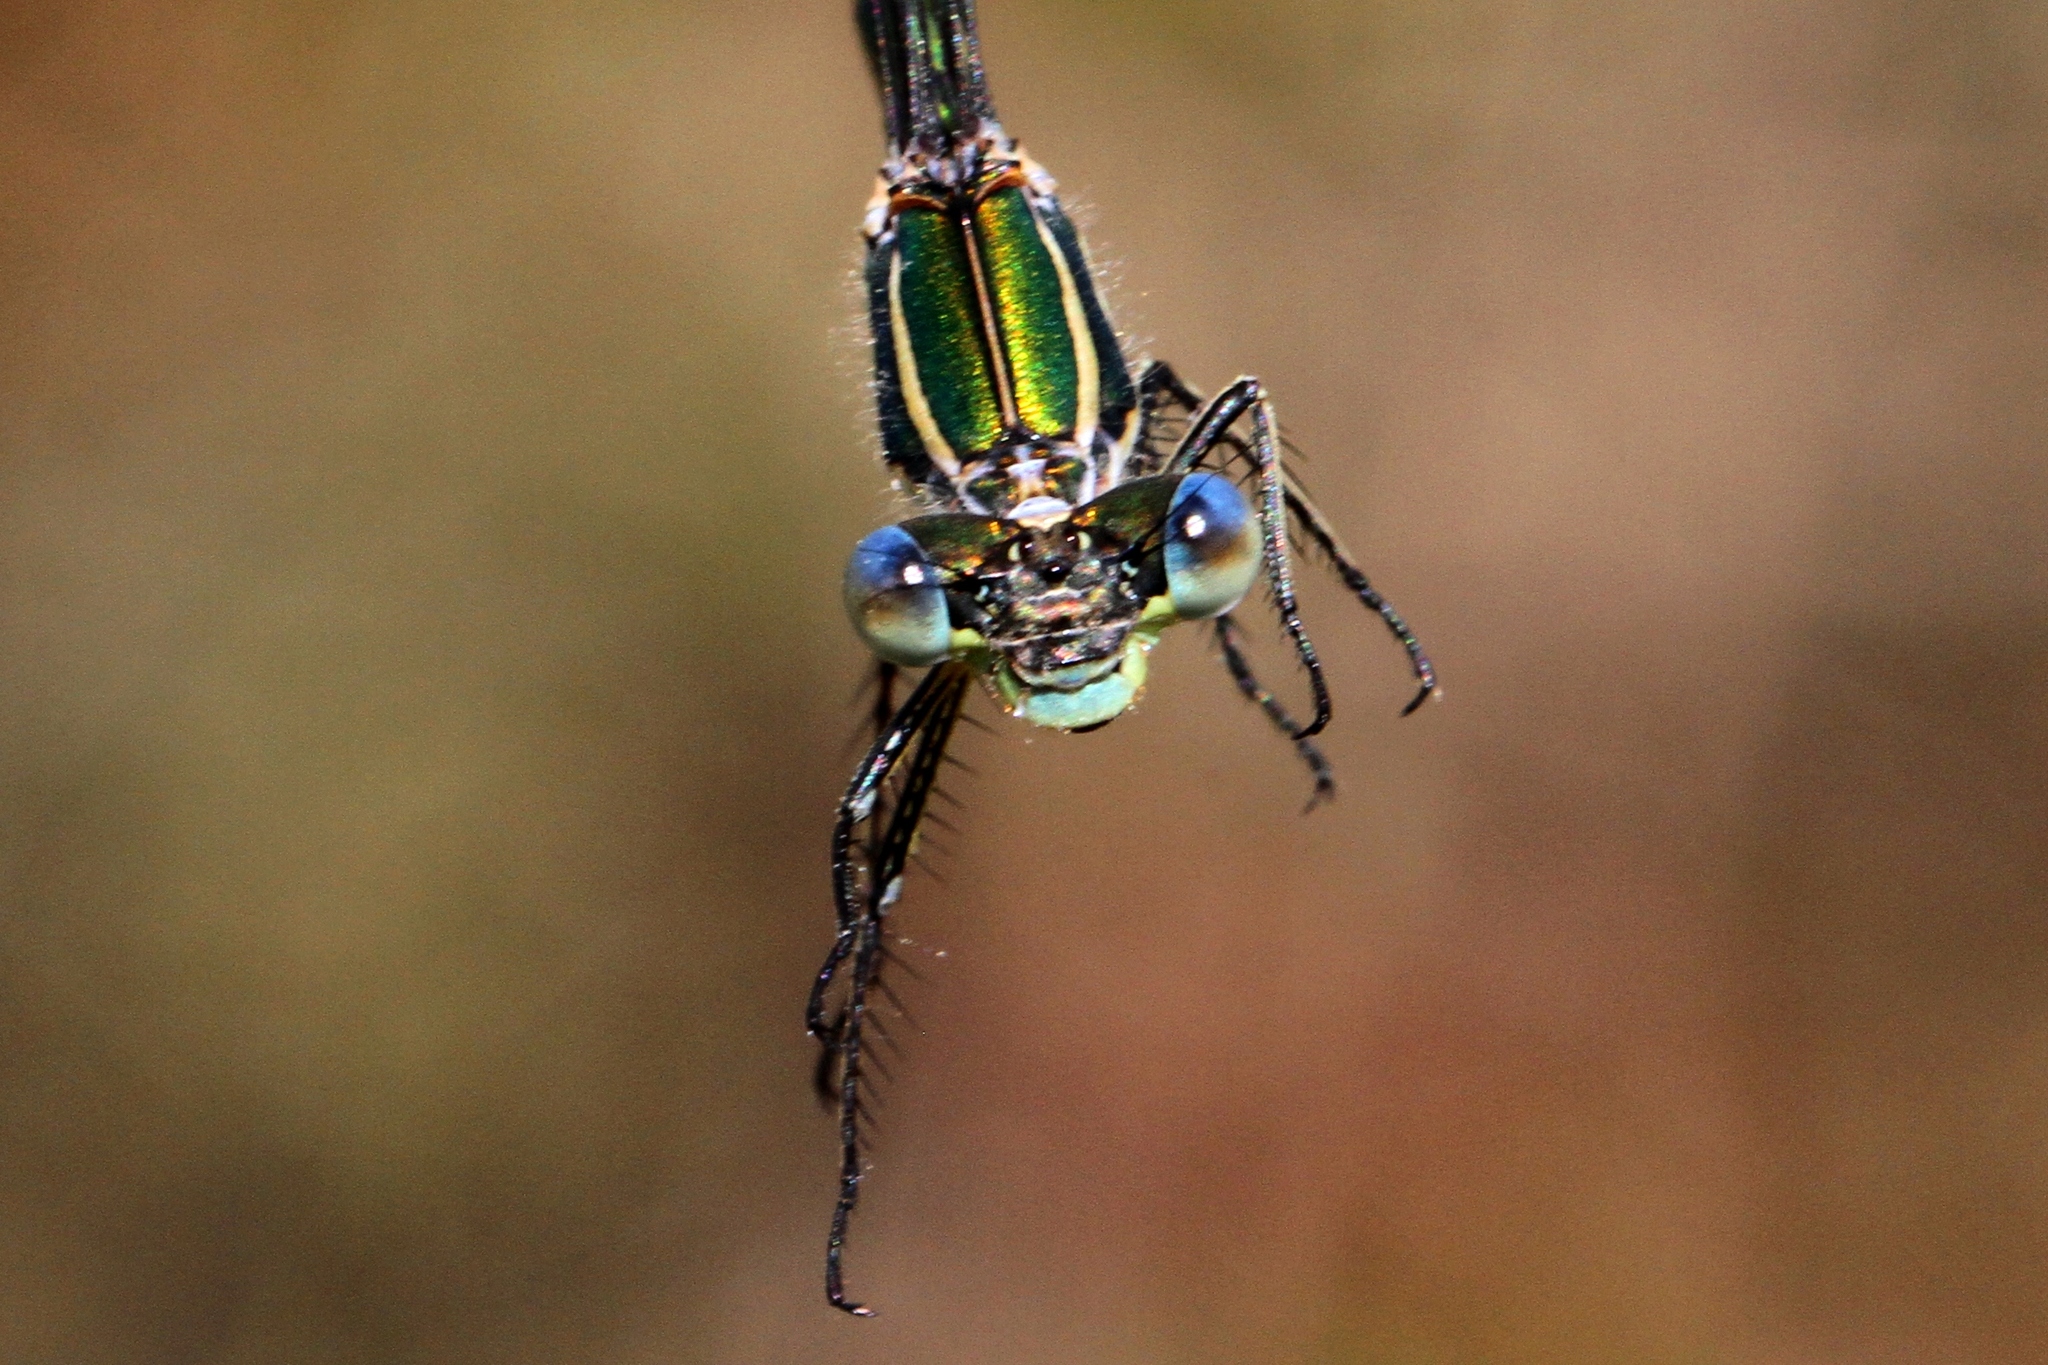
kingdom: Animalia
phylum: Arthropoda
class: Insecta
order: Odonata
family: Lestidae
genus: Lestes
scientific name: Lestes dryas
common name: Scarce emerald damselfly
